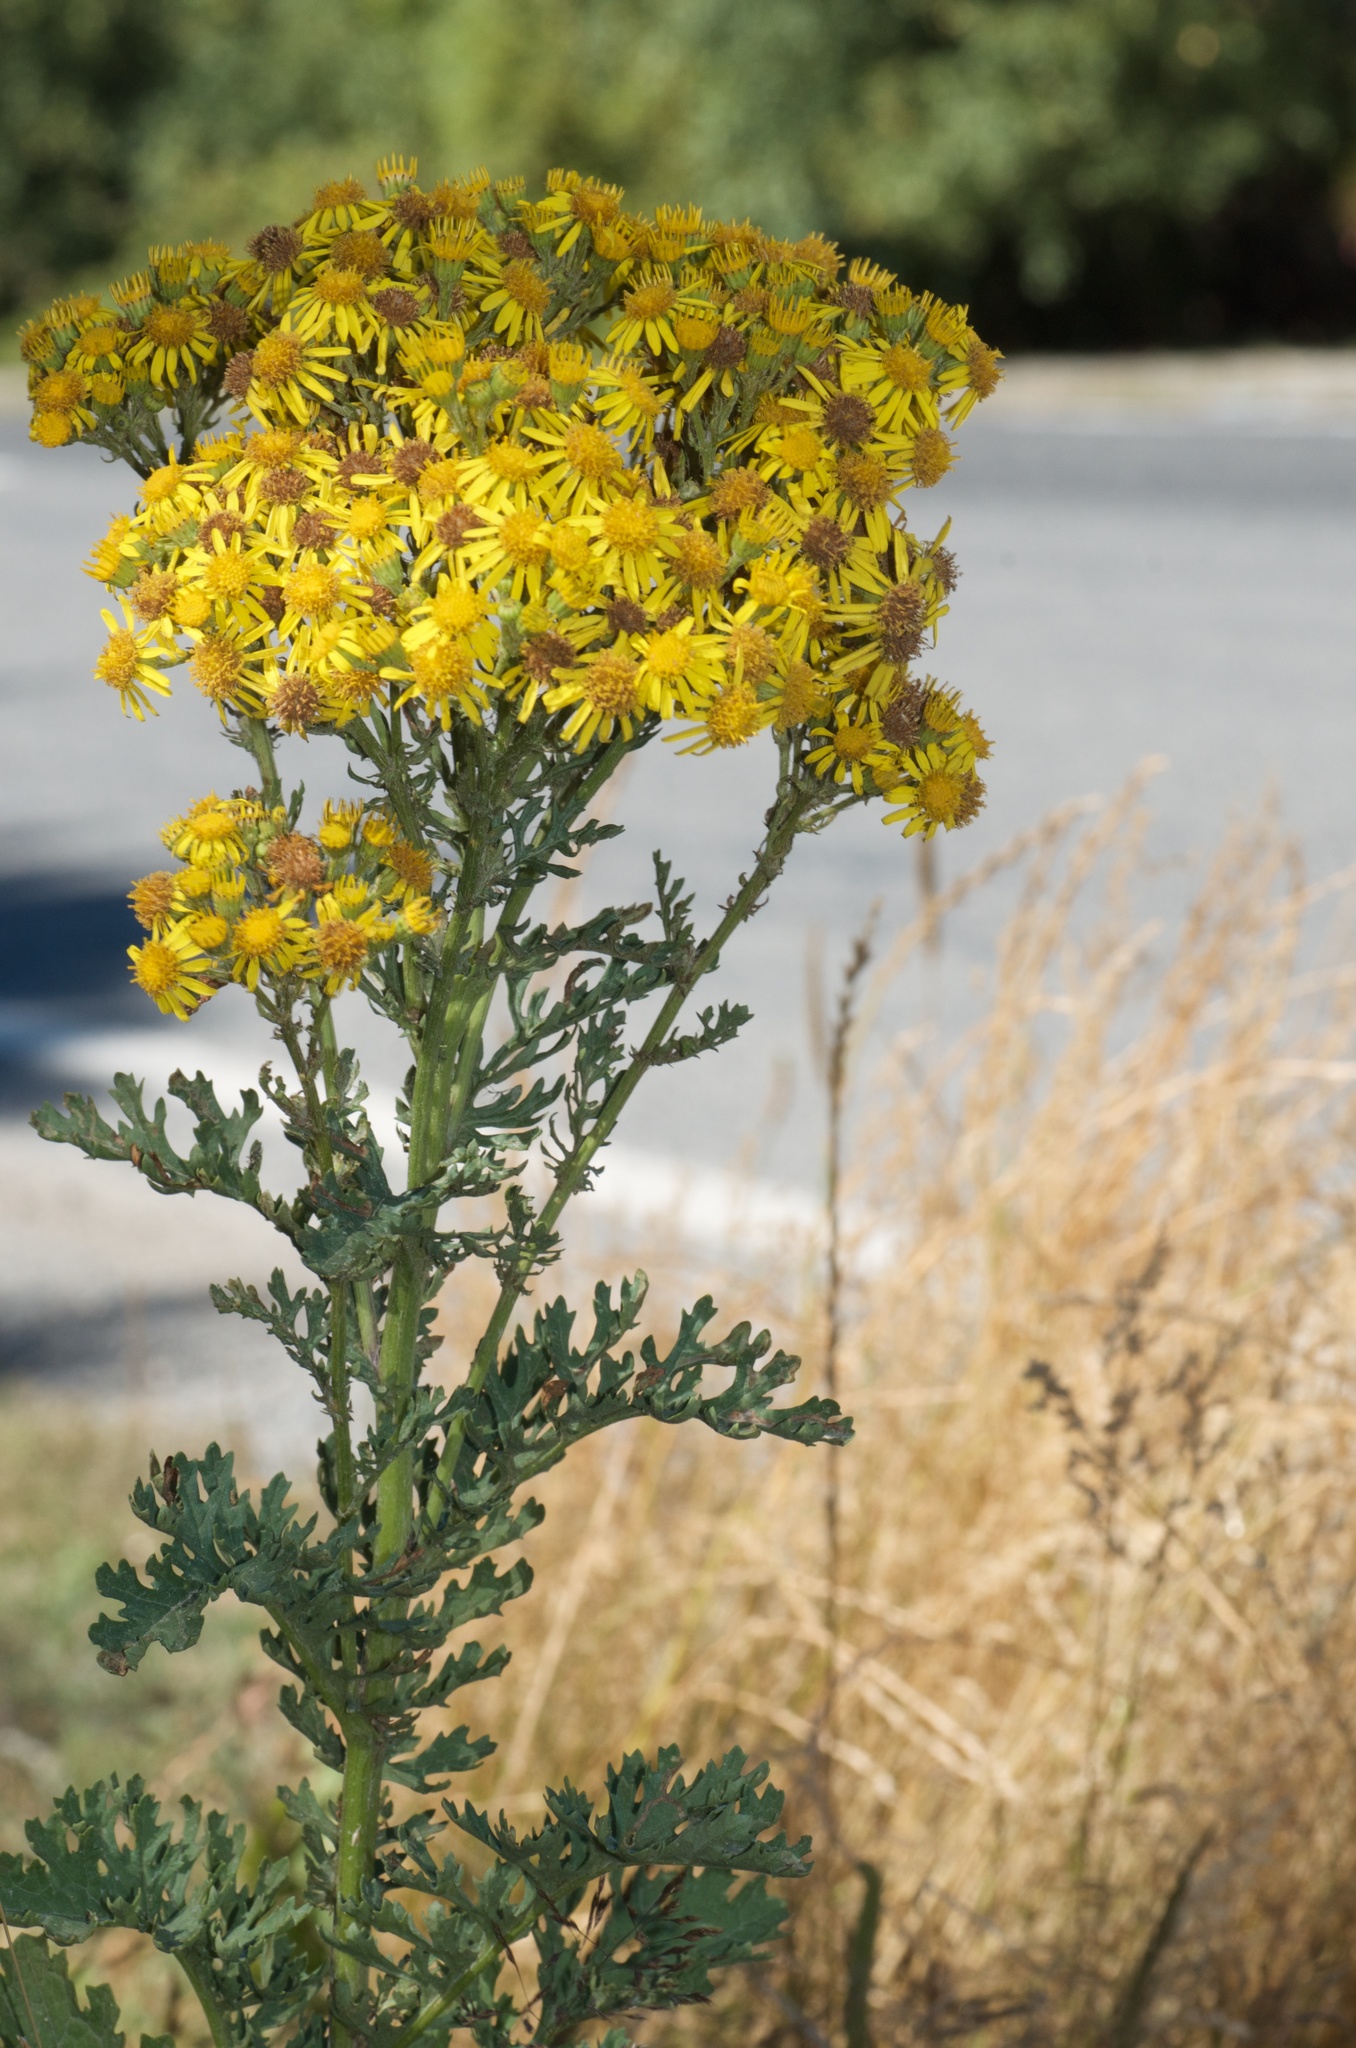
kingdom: Plantae
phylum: Tracheophyta
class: Magnoliopsida
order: Asterales
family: Asteraceae
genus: Jacobaea
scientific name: Jacobaea vulgaris
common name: Stinking willie
